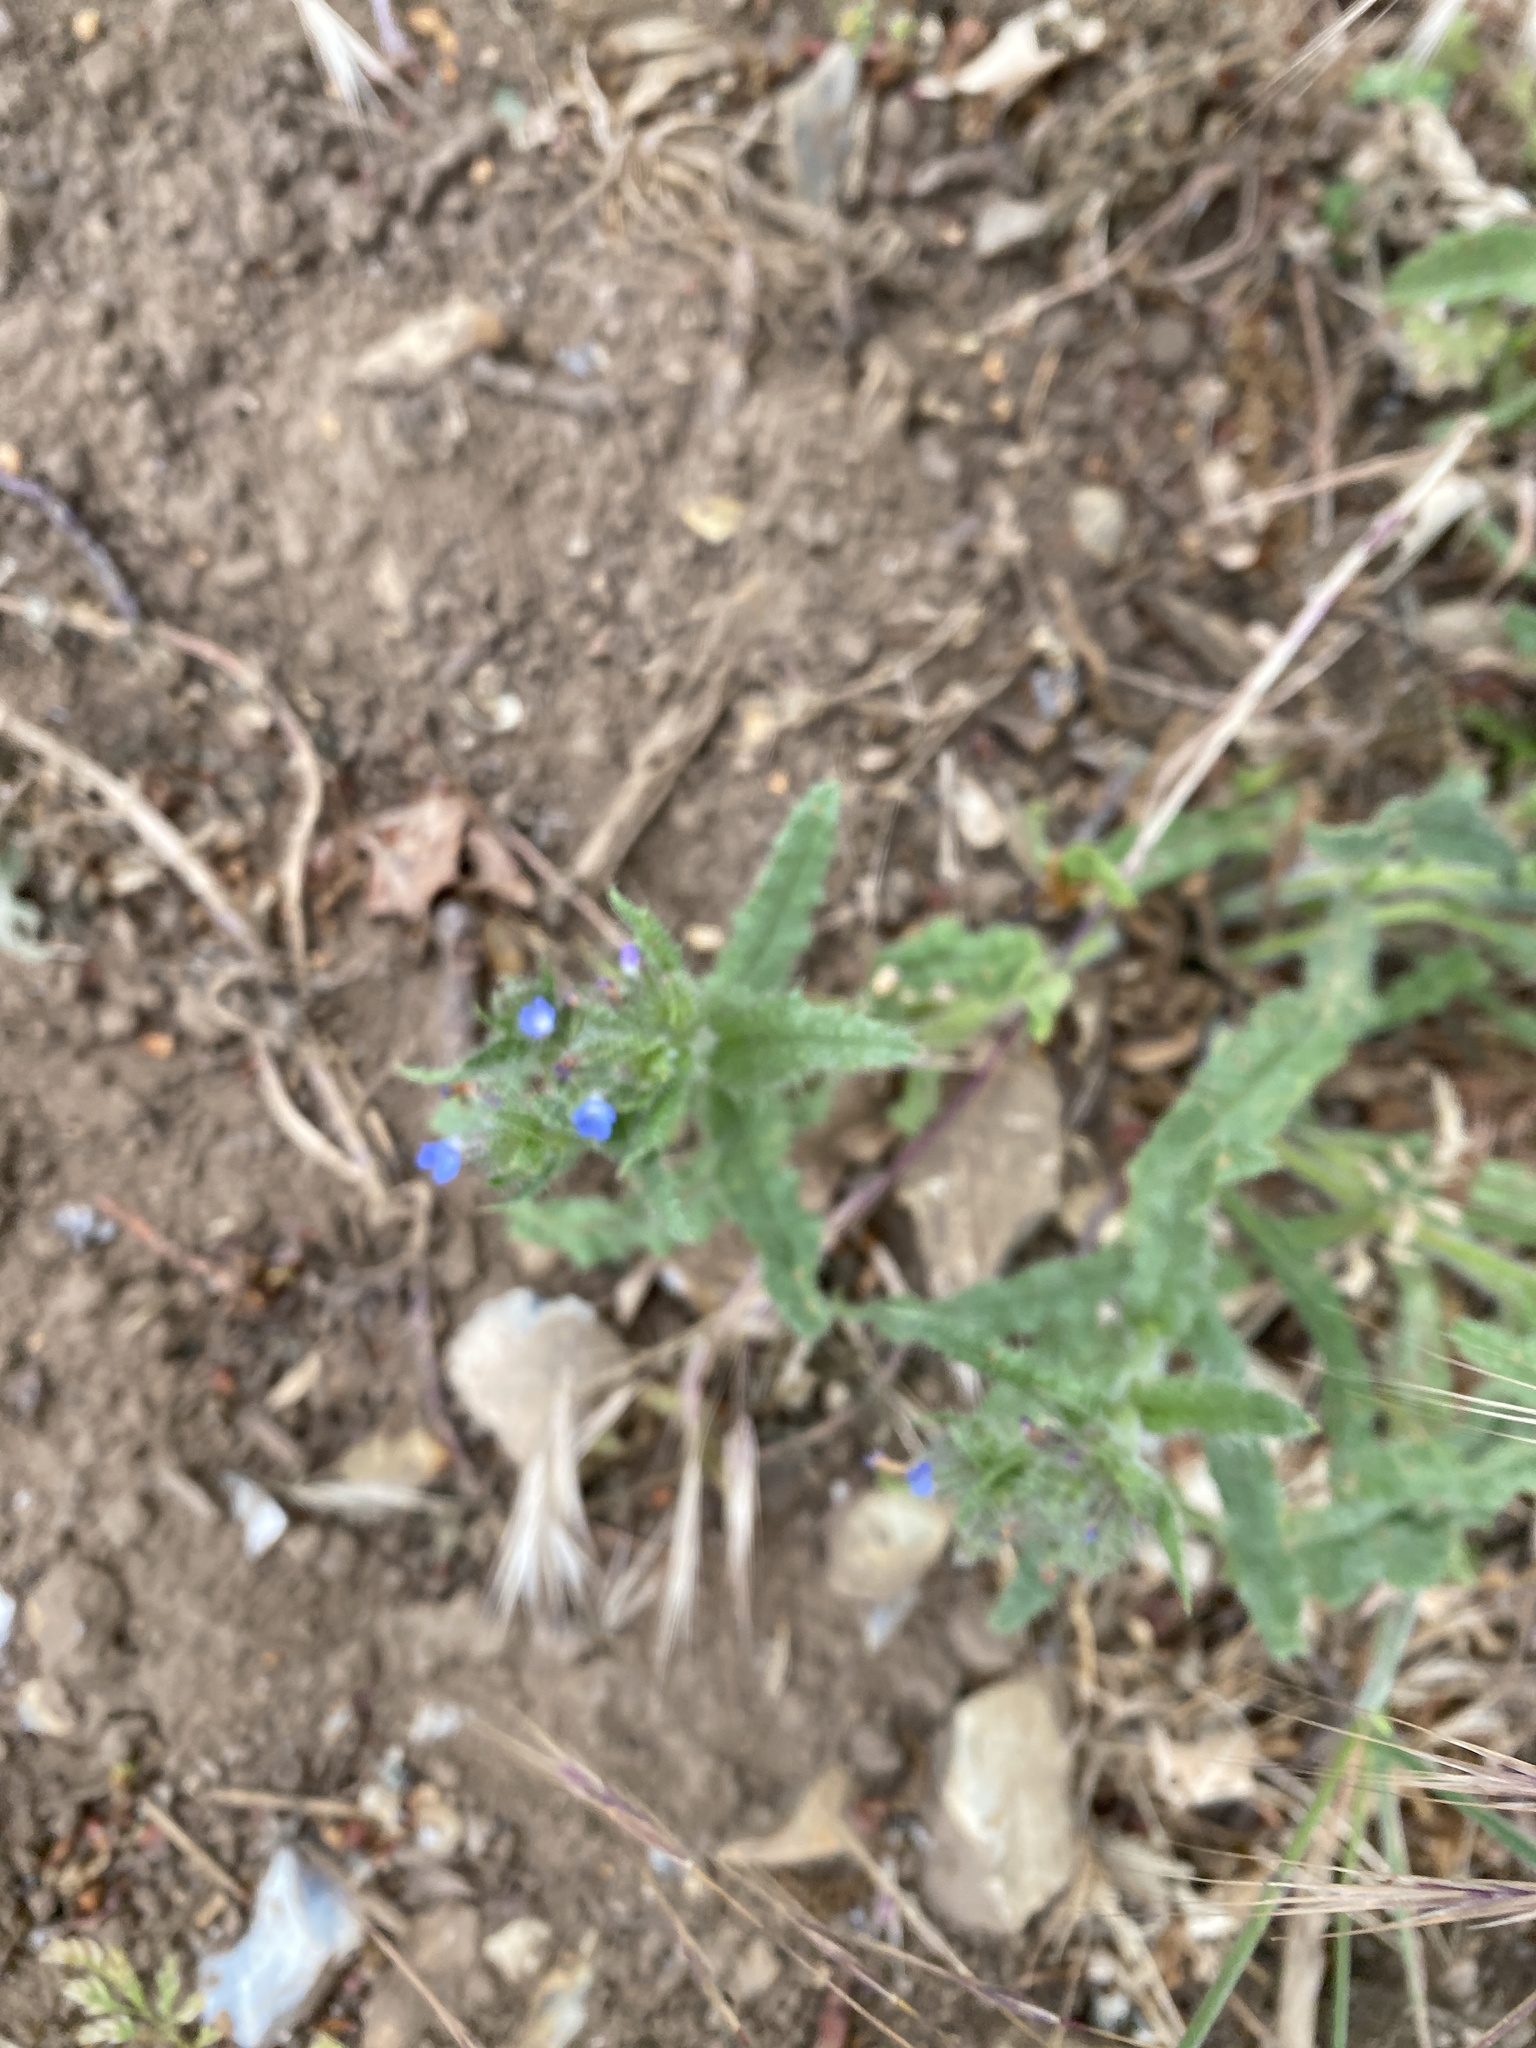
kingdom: Plantae
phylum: Tracheophyta
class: Magnoliopsida
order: Boraginales
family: Boraginaceae
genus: Lycopsis
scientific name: Lycopsis arvensis
